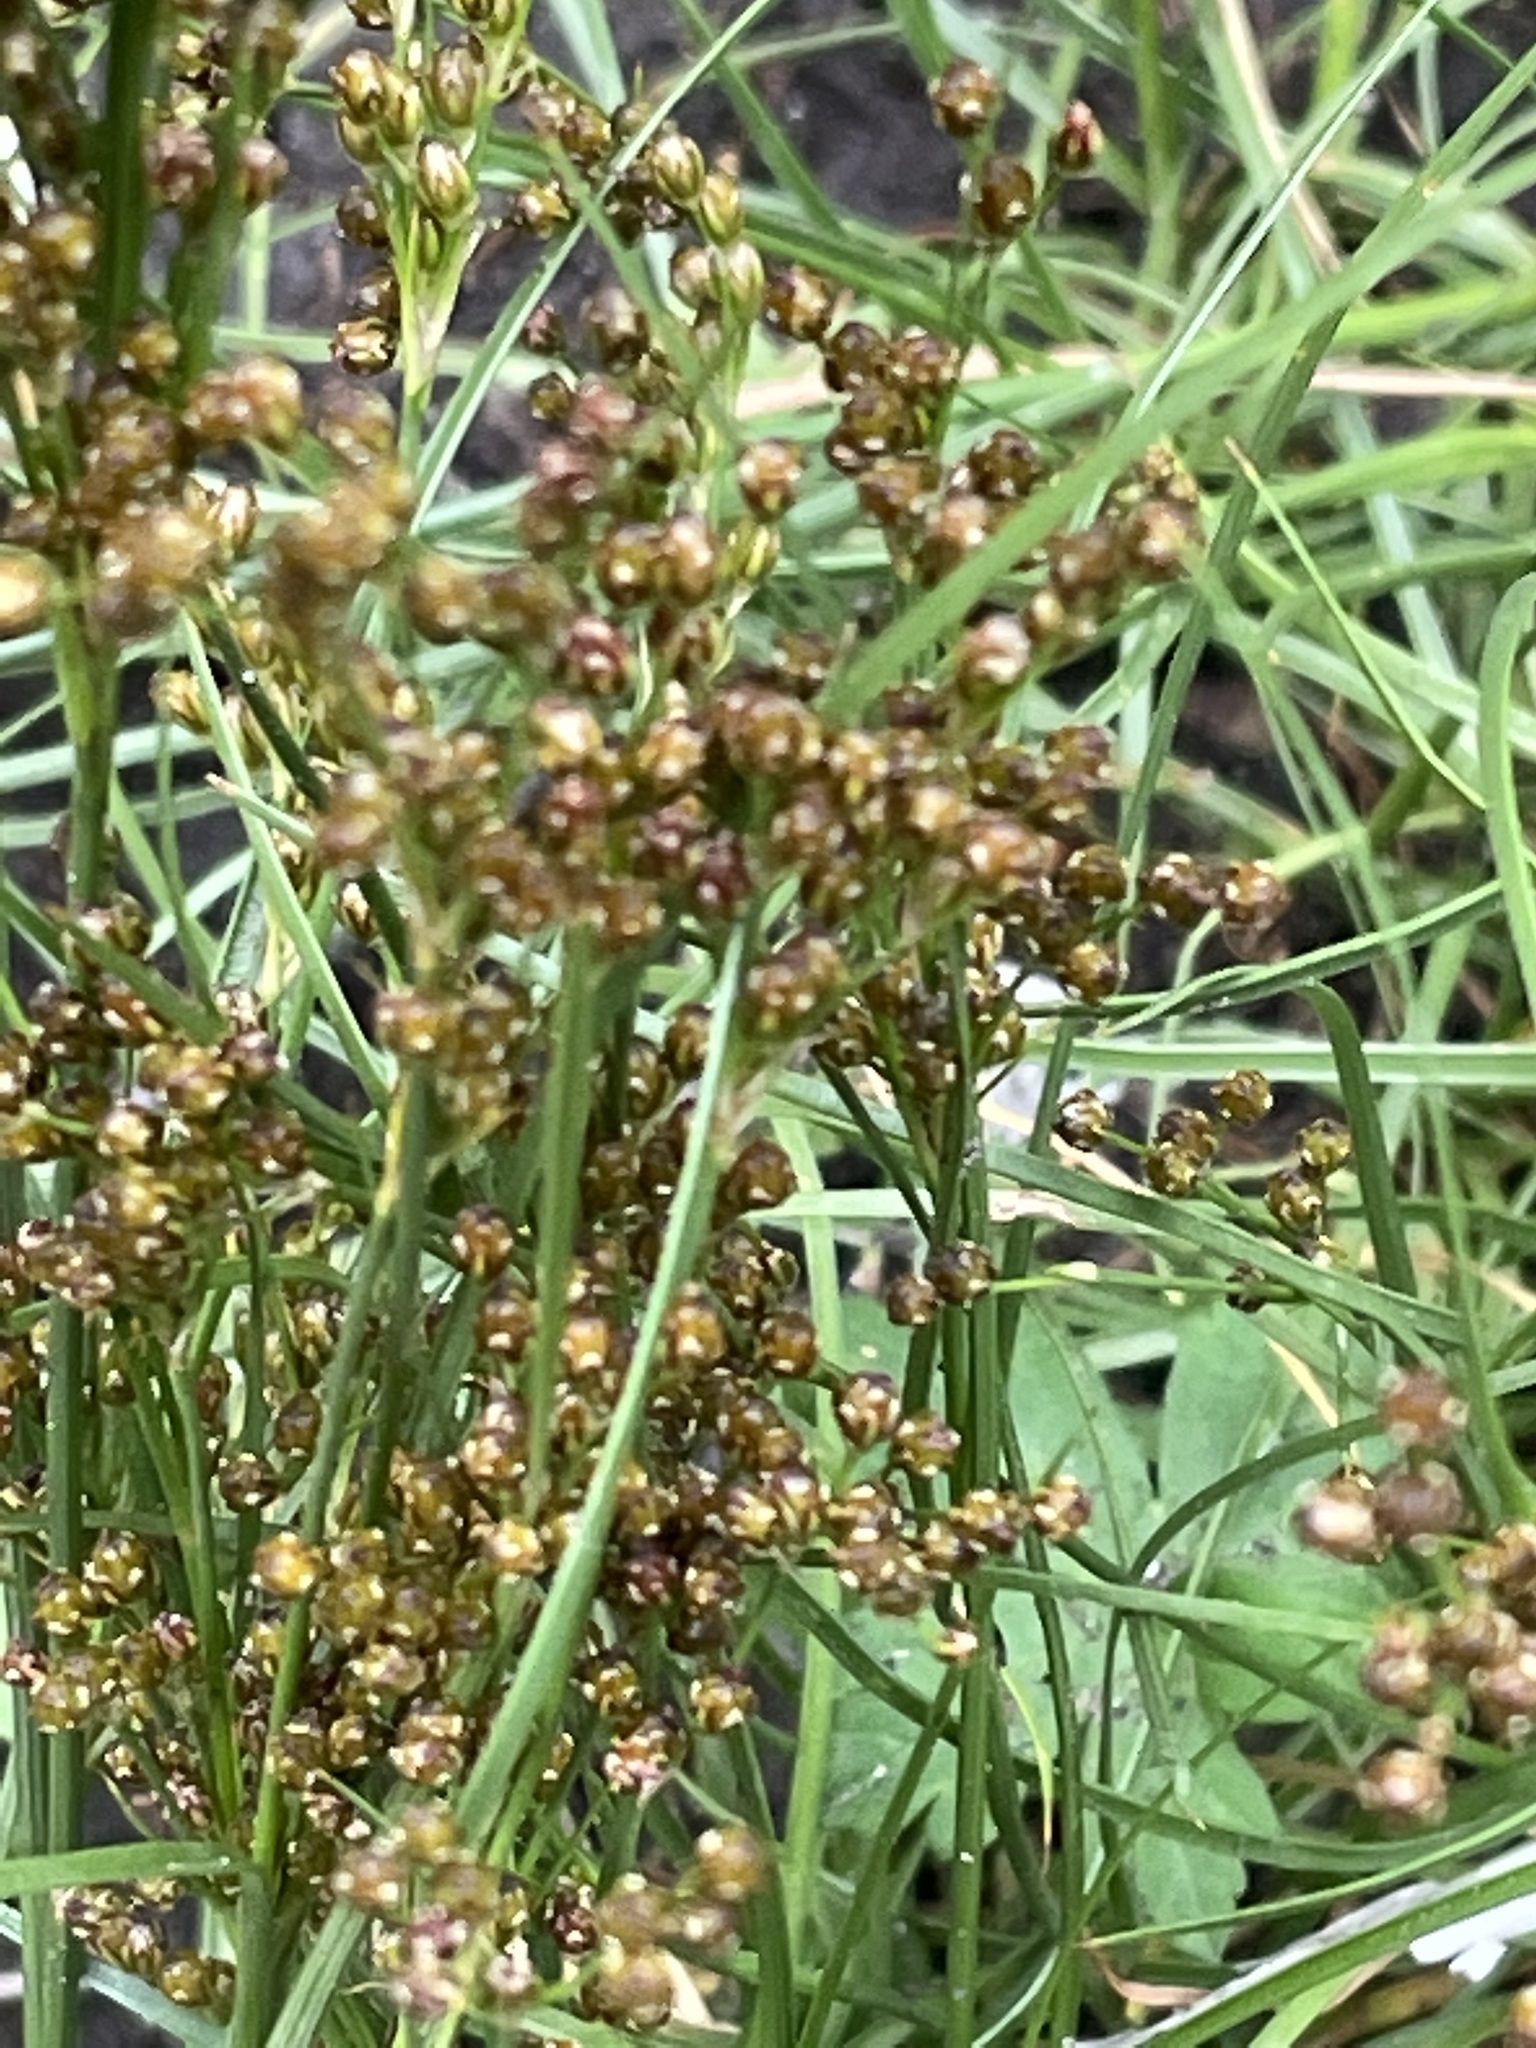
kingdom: Plantae
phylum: Tracheophyta
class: Liliopsida
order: Poales
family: Juncaceae
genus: Juncus
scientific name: Juncus compressus
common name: Round-fruited rush
